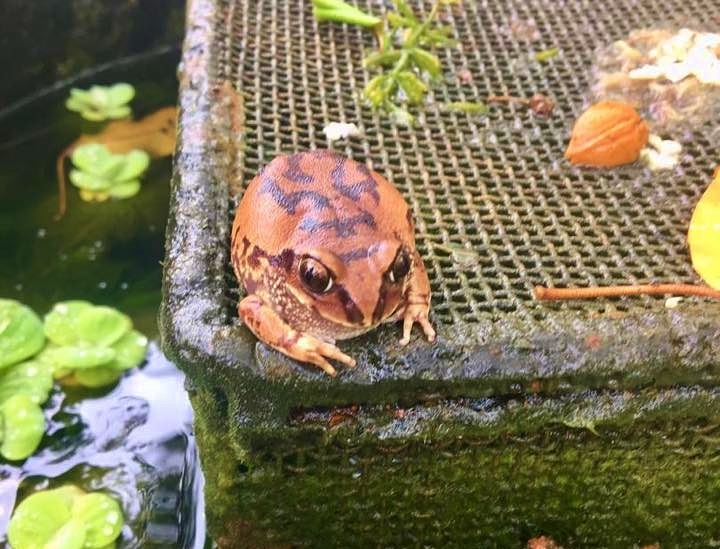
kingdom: Animalia
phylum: Chordata
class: Amphibia
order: Anura
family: Arthroleptidae
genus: Leptopelis
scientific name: Leptopelis bocagii
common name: Bocage's frog
